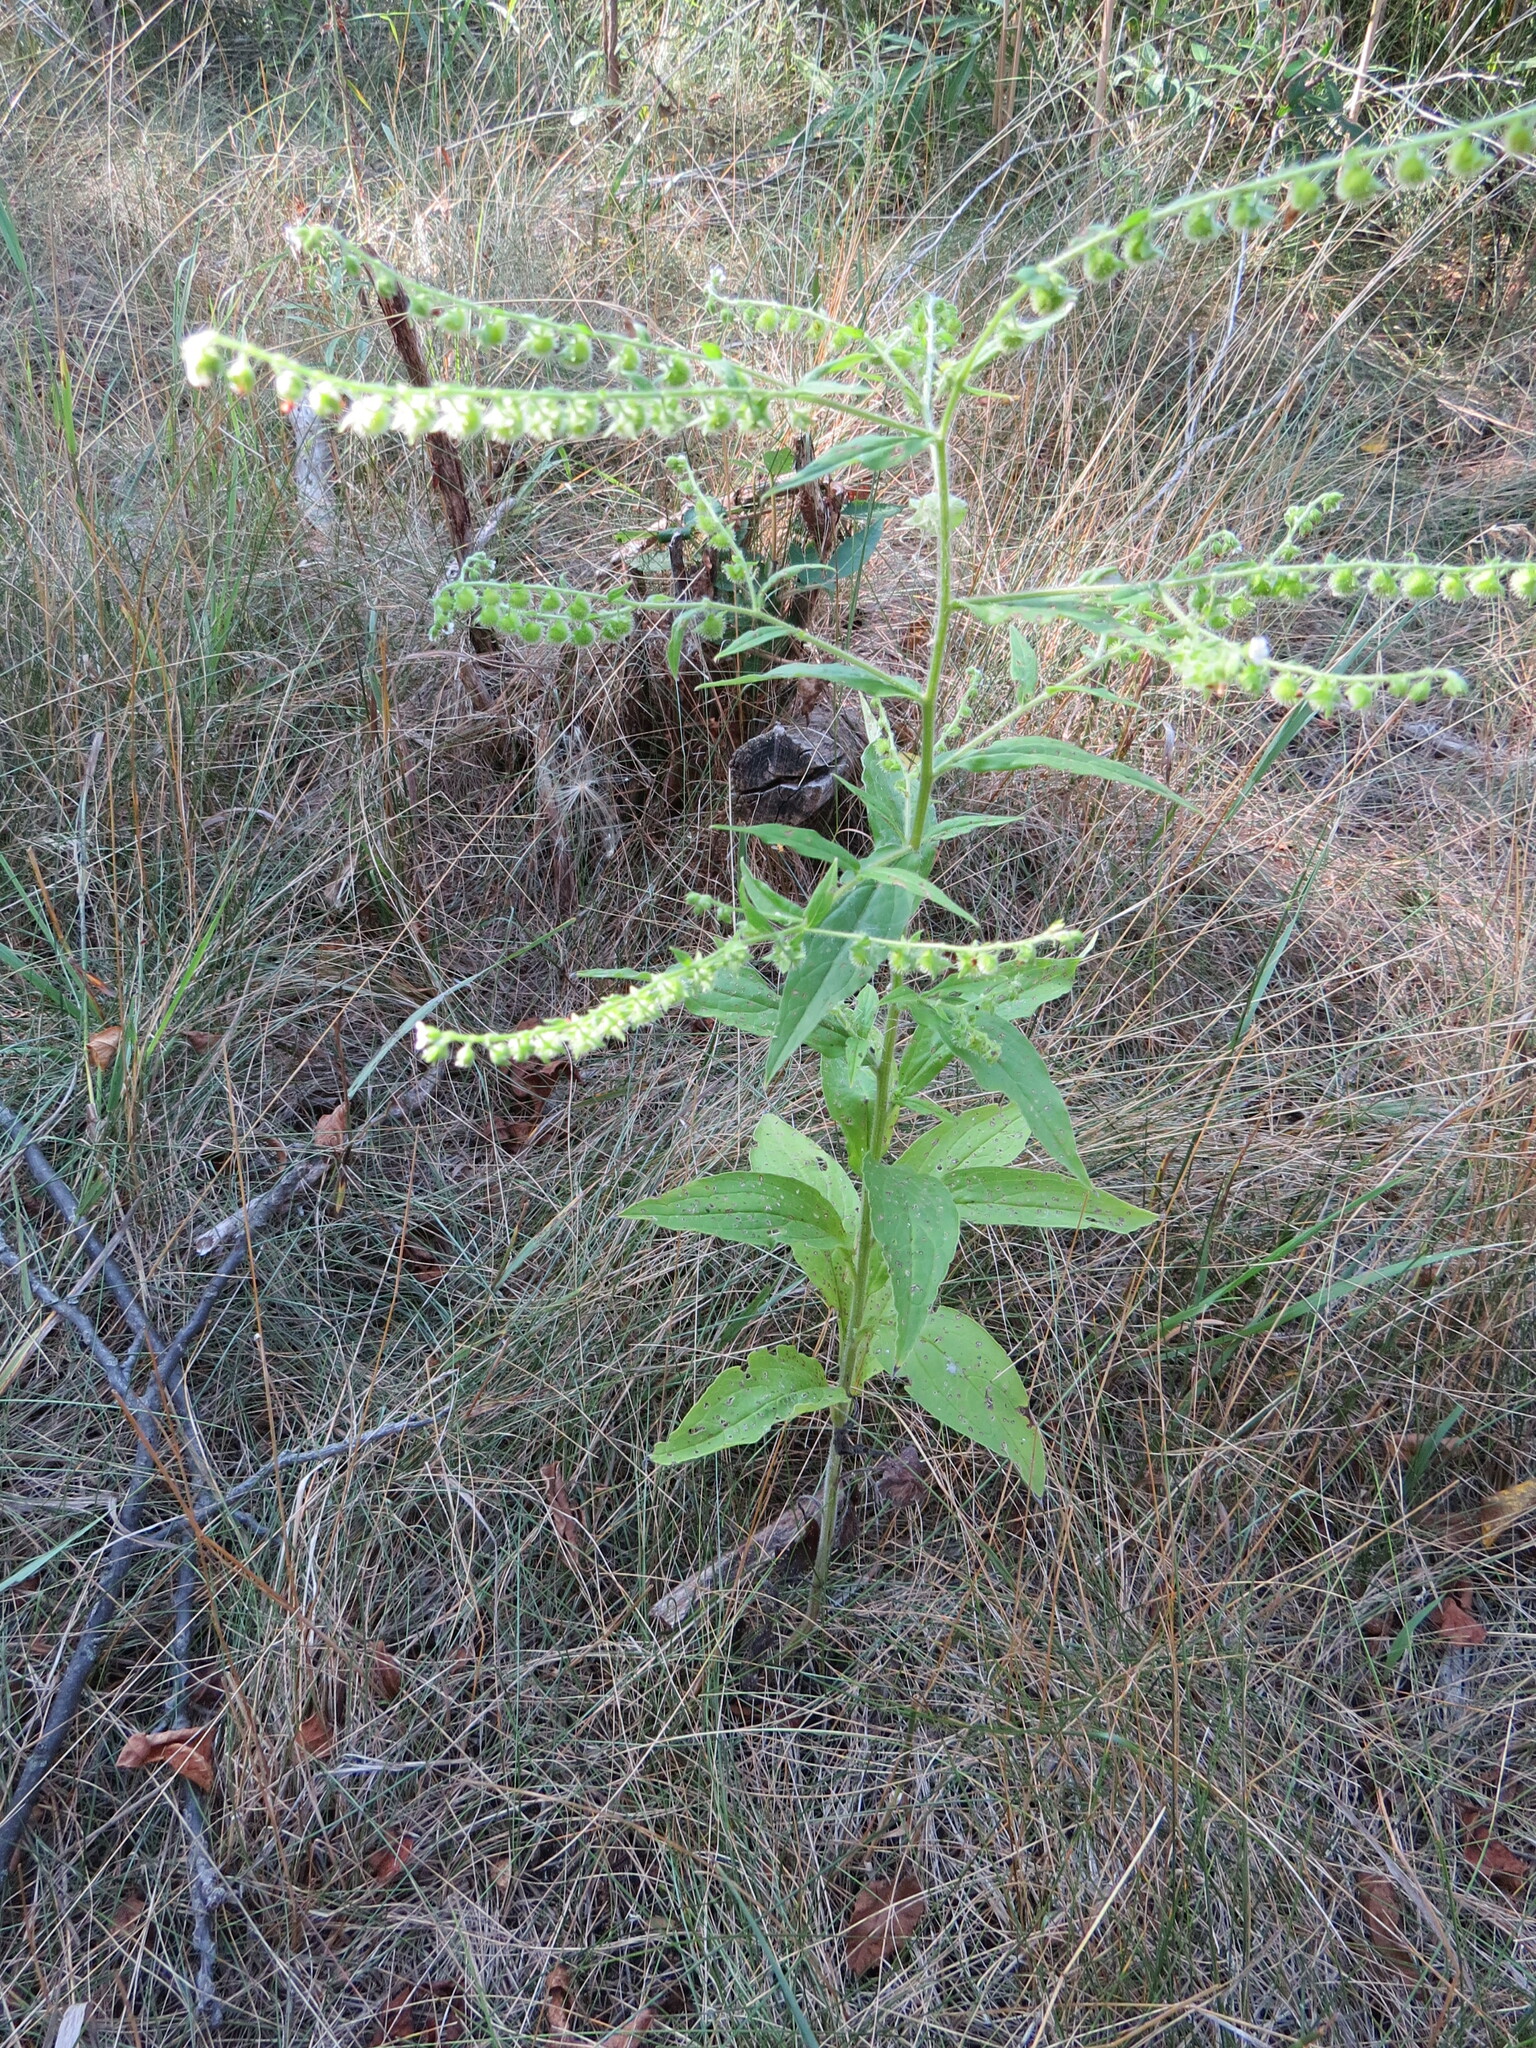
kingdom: Plantae
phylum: Tracheophyta
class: Magnoliopsida
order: Boraginales
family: Boraginaceae
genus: Hackelia
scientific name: Hackelia virginiana
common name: Beggar's-lice
